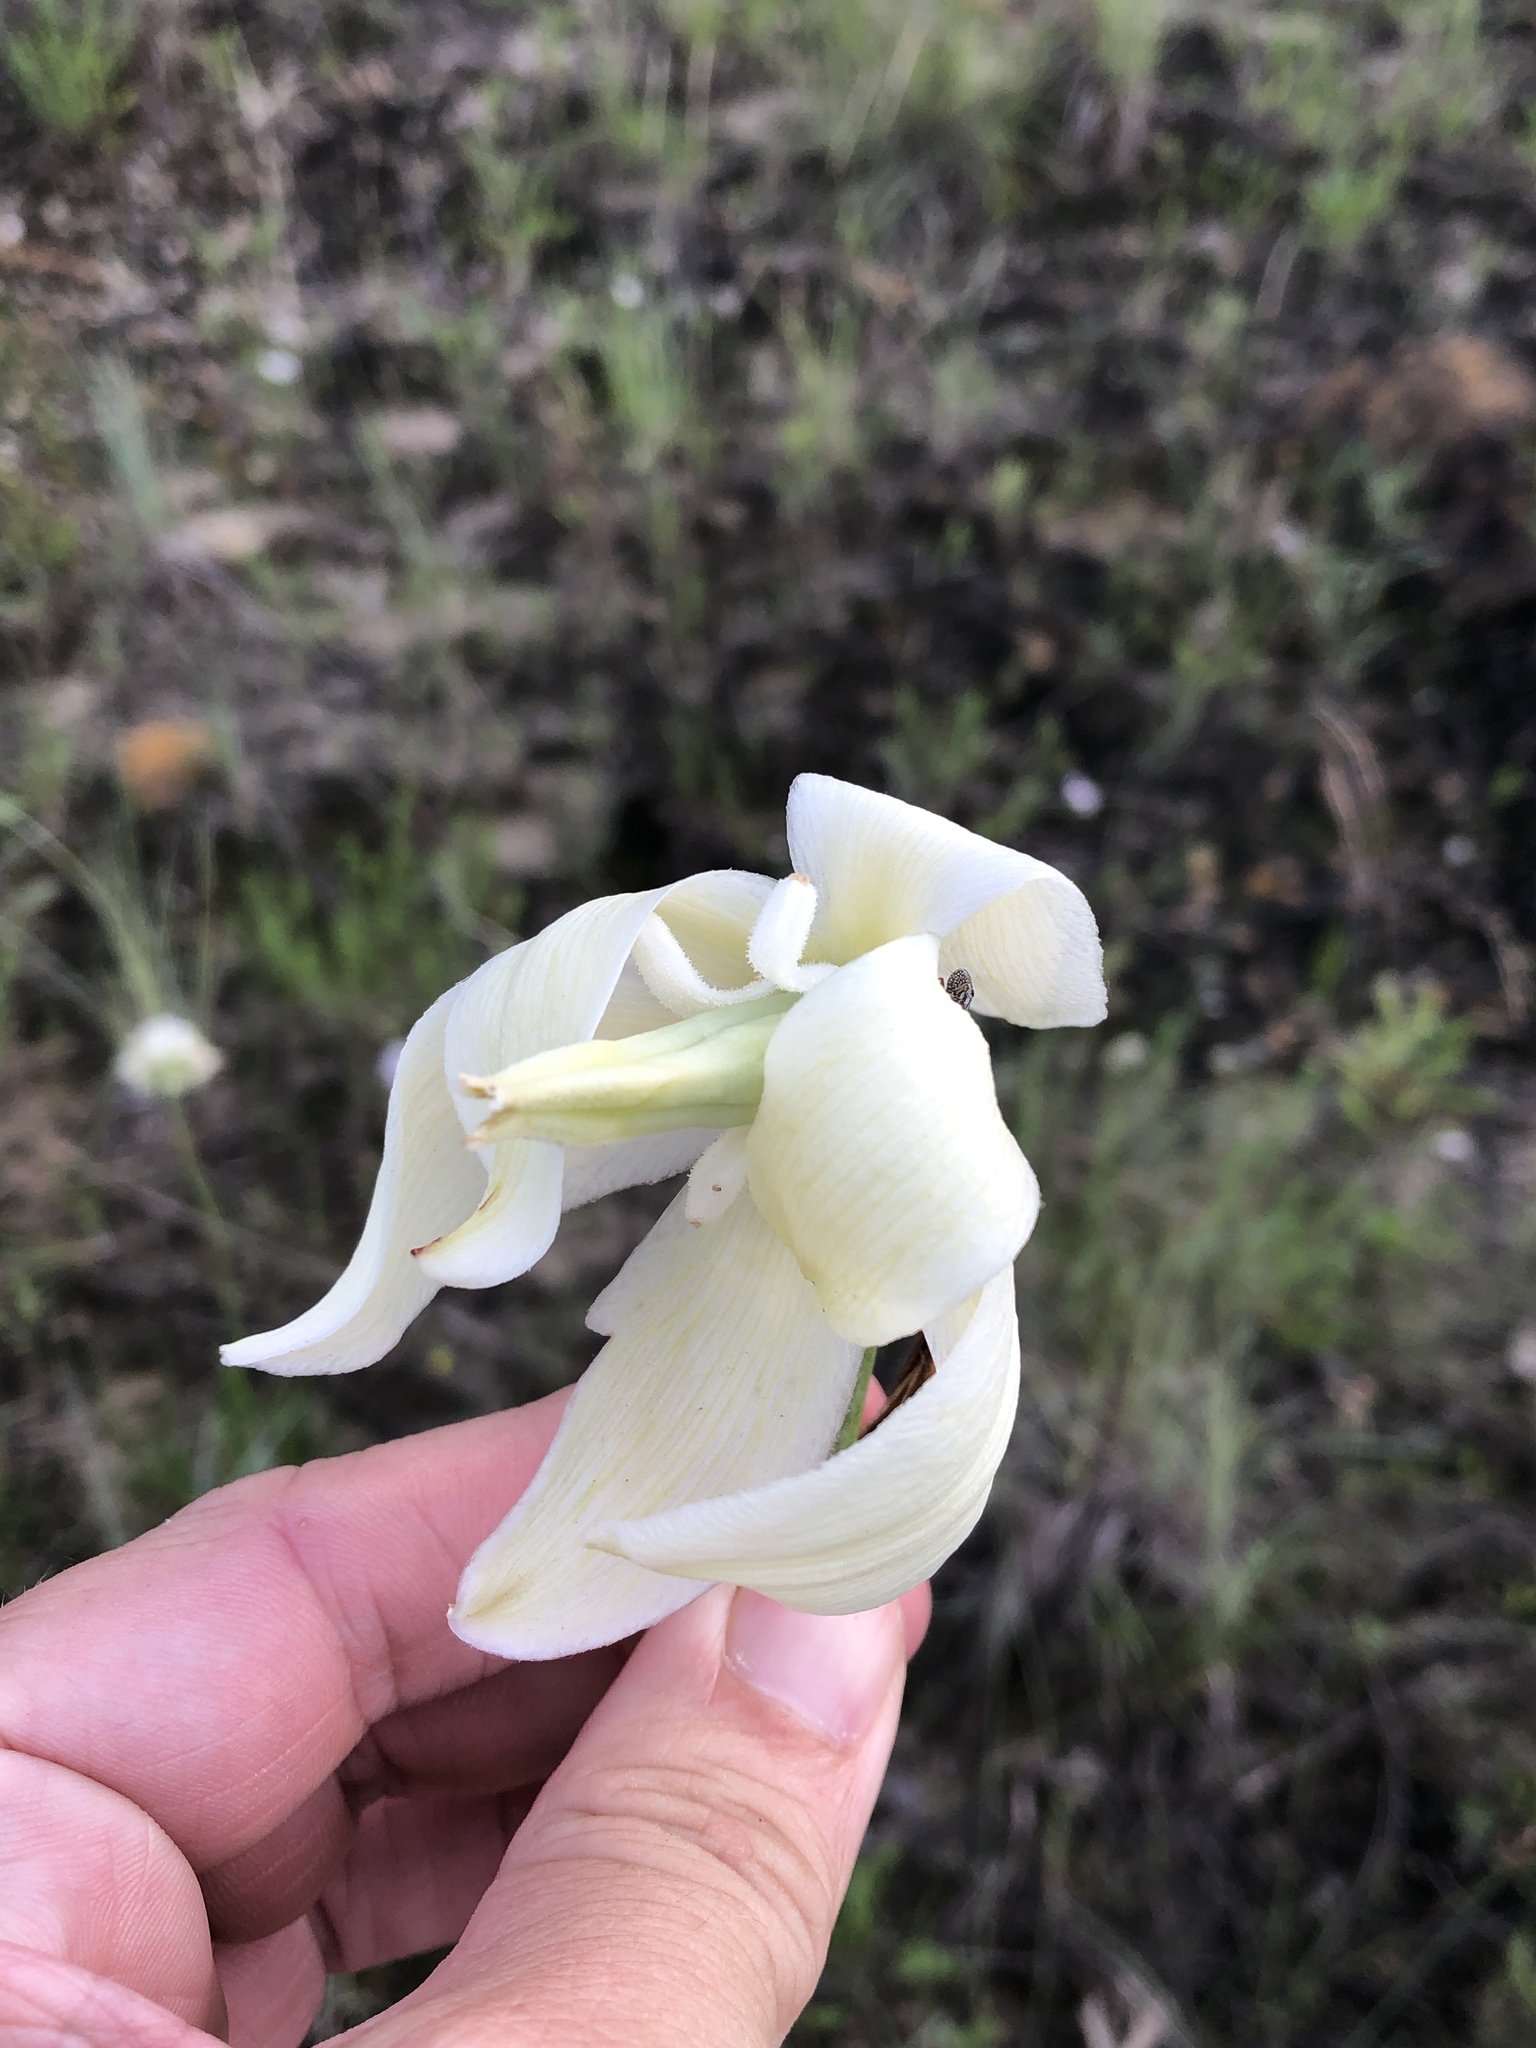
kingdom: Plantae
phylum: Tracheophyta
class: Liliopsida
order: Asparagales
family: Asparagaceae
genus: Yucca
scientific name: Yucca pallida
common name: Pale leaf yucca
